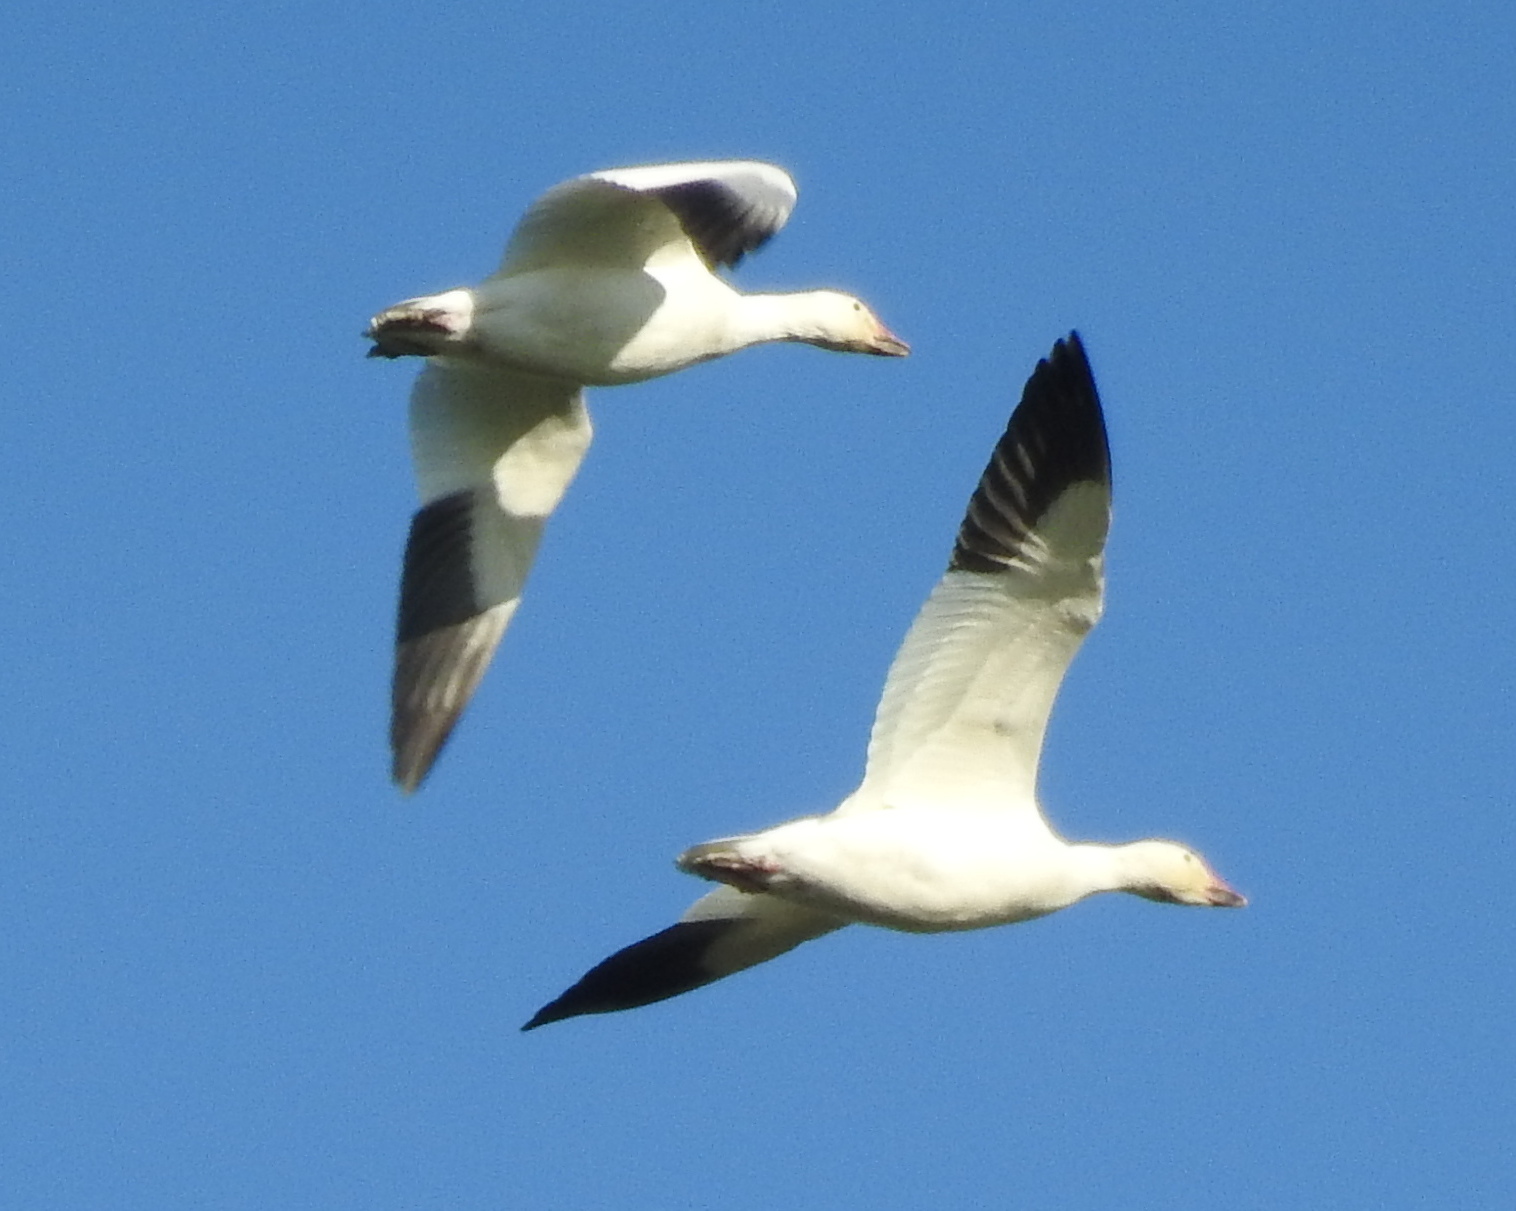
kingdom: Animalia
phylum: Chordata
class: Aves
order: Anseriformes
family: Anatidae
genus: Anser
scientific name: Anser caerulescens
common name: Snow goose
